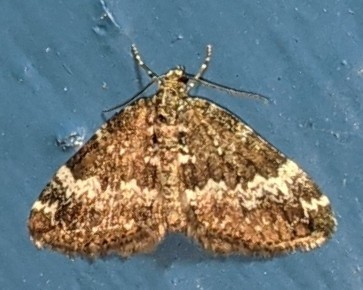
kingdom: Animalia
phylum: Arthropoda
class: Insecta
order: Lepidoptera
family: Geometridae
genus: Perizoma
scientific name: Perizoma alchemillata
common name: Small rivulet
